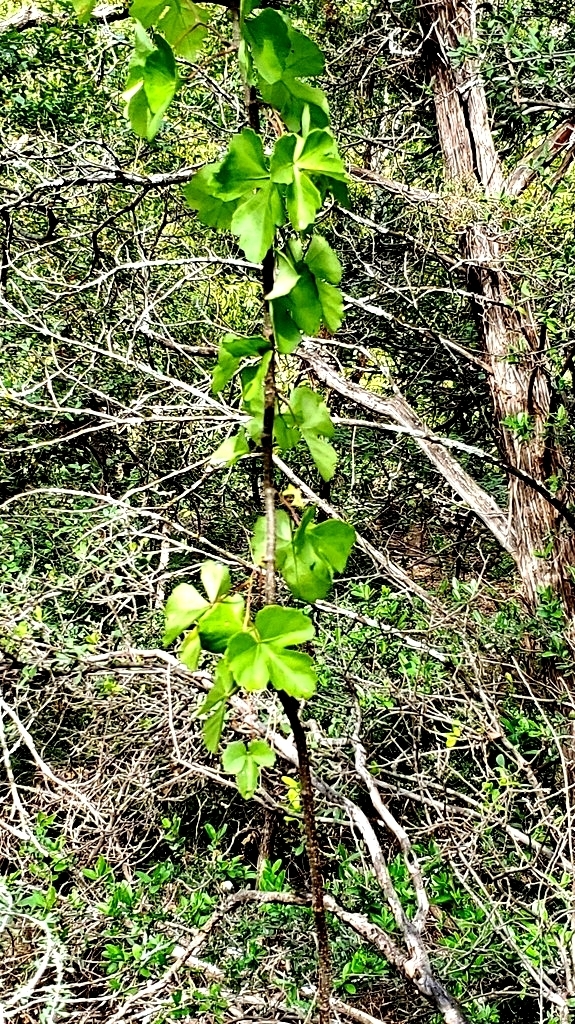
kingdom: Plantae
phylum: Tracheophyta
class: Magnoliopsida
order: Vitales
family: Vitaceae
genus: Cissus
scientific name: Cissus trifoliata
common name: Vine-sorrel
